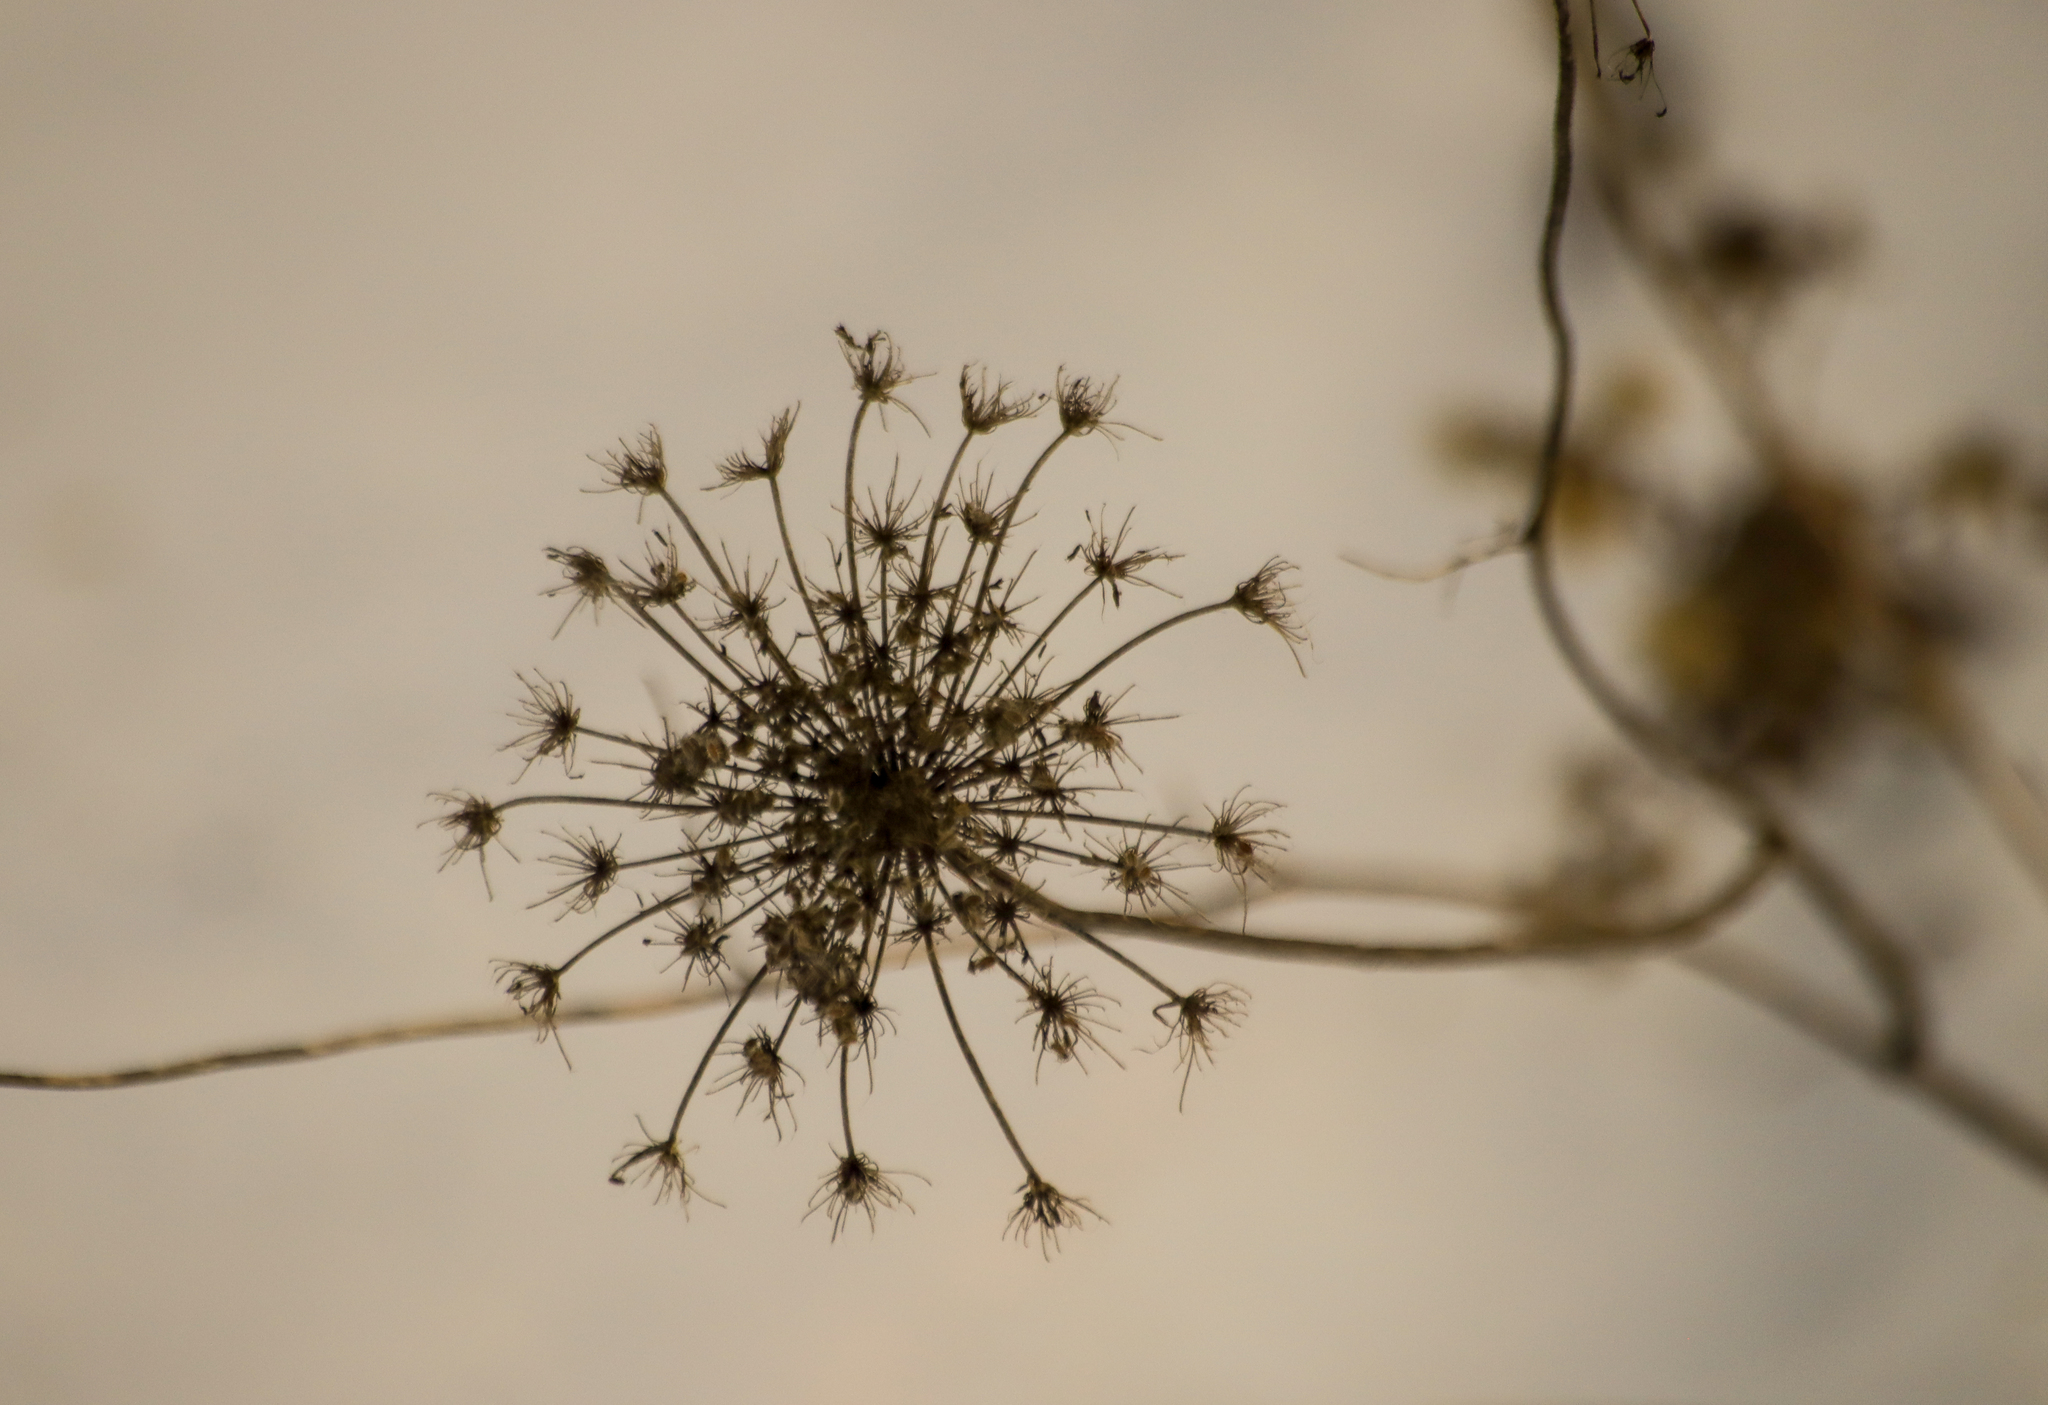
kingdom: Plantae
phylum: Tracheophyta
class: Magnoliopsida
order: Apiales
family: Apiaceae
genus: Daucus
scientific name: Daucus carota
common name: Wild carrot
